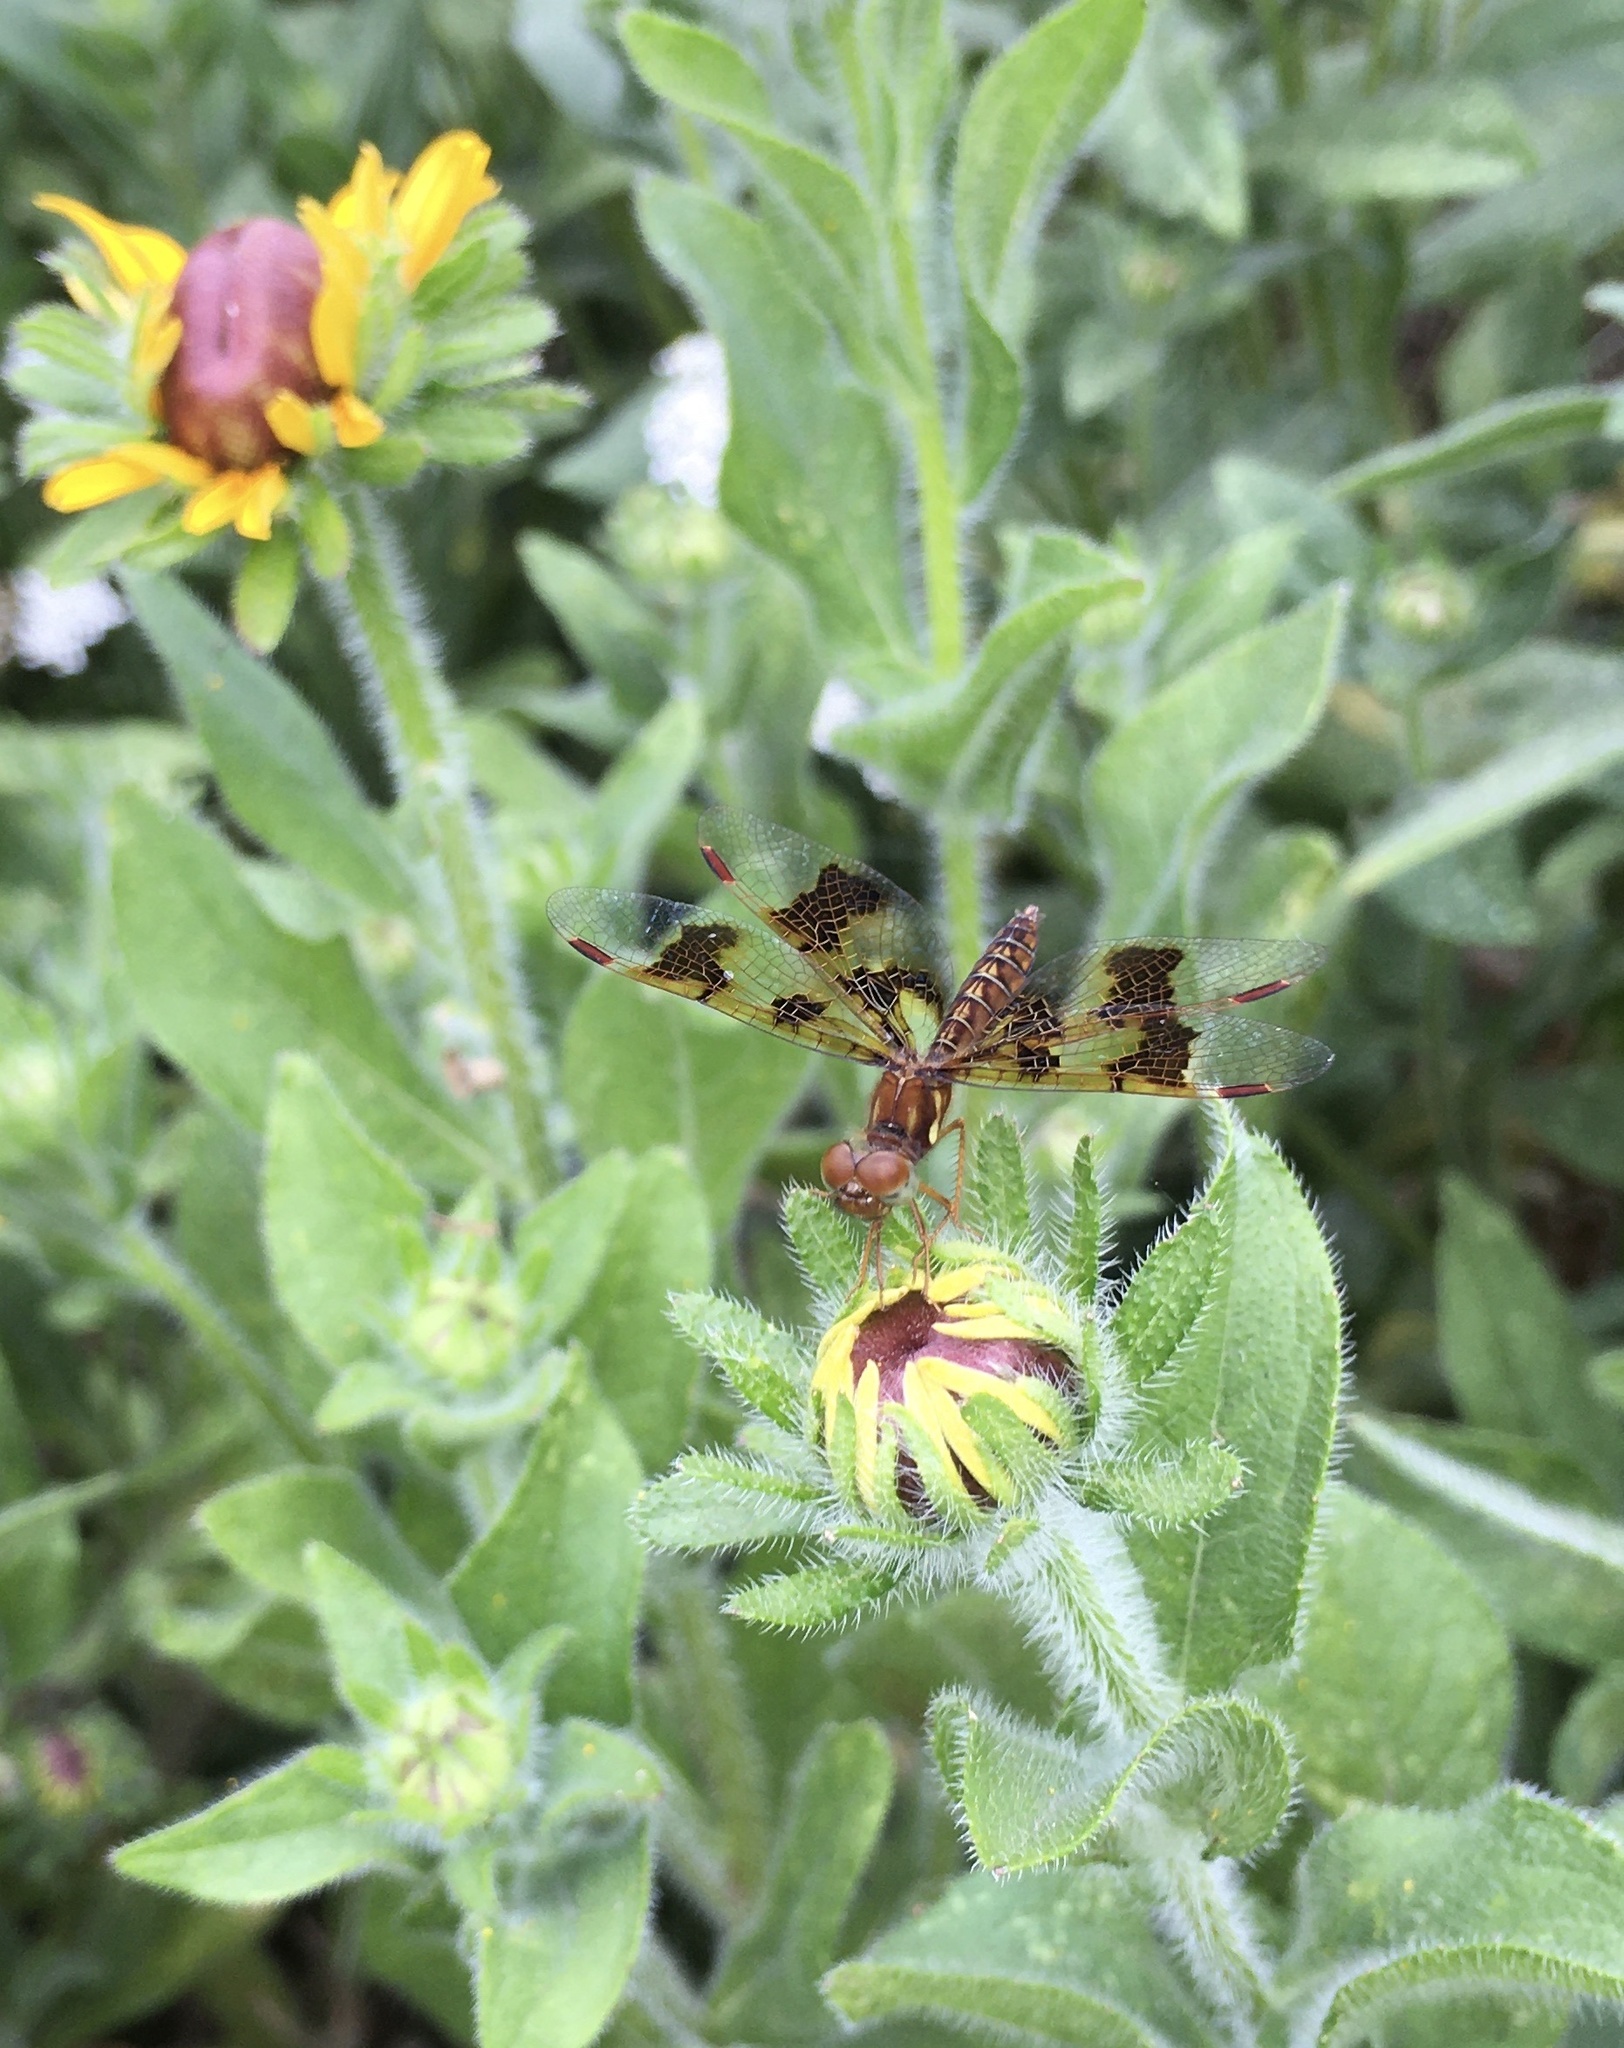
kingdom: Animalia
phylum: Arthropoda
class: Insecta
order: Odonata
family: Libellulidae
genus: Perithemis
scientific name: Perithemis tenera
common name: Eastern amberwing
